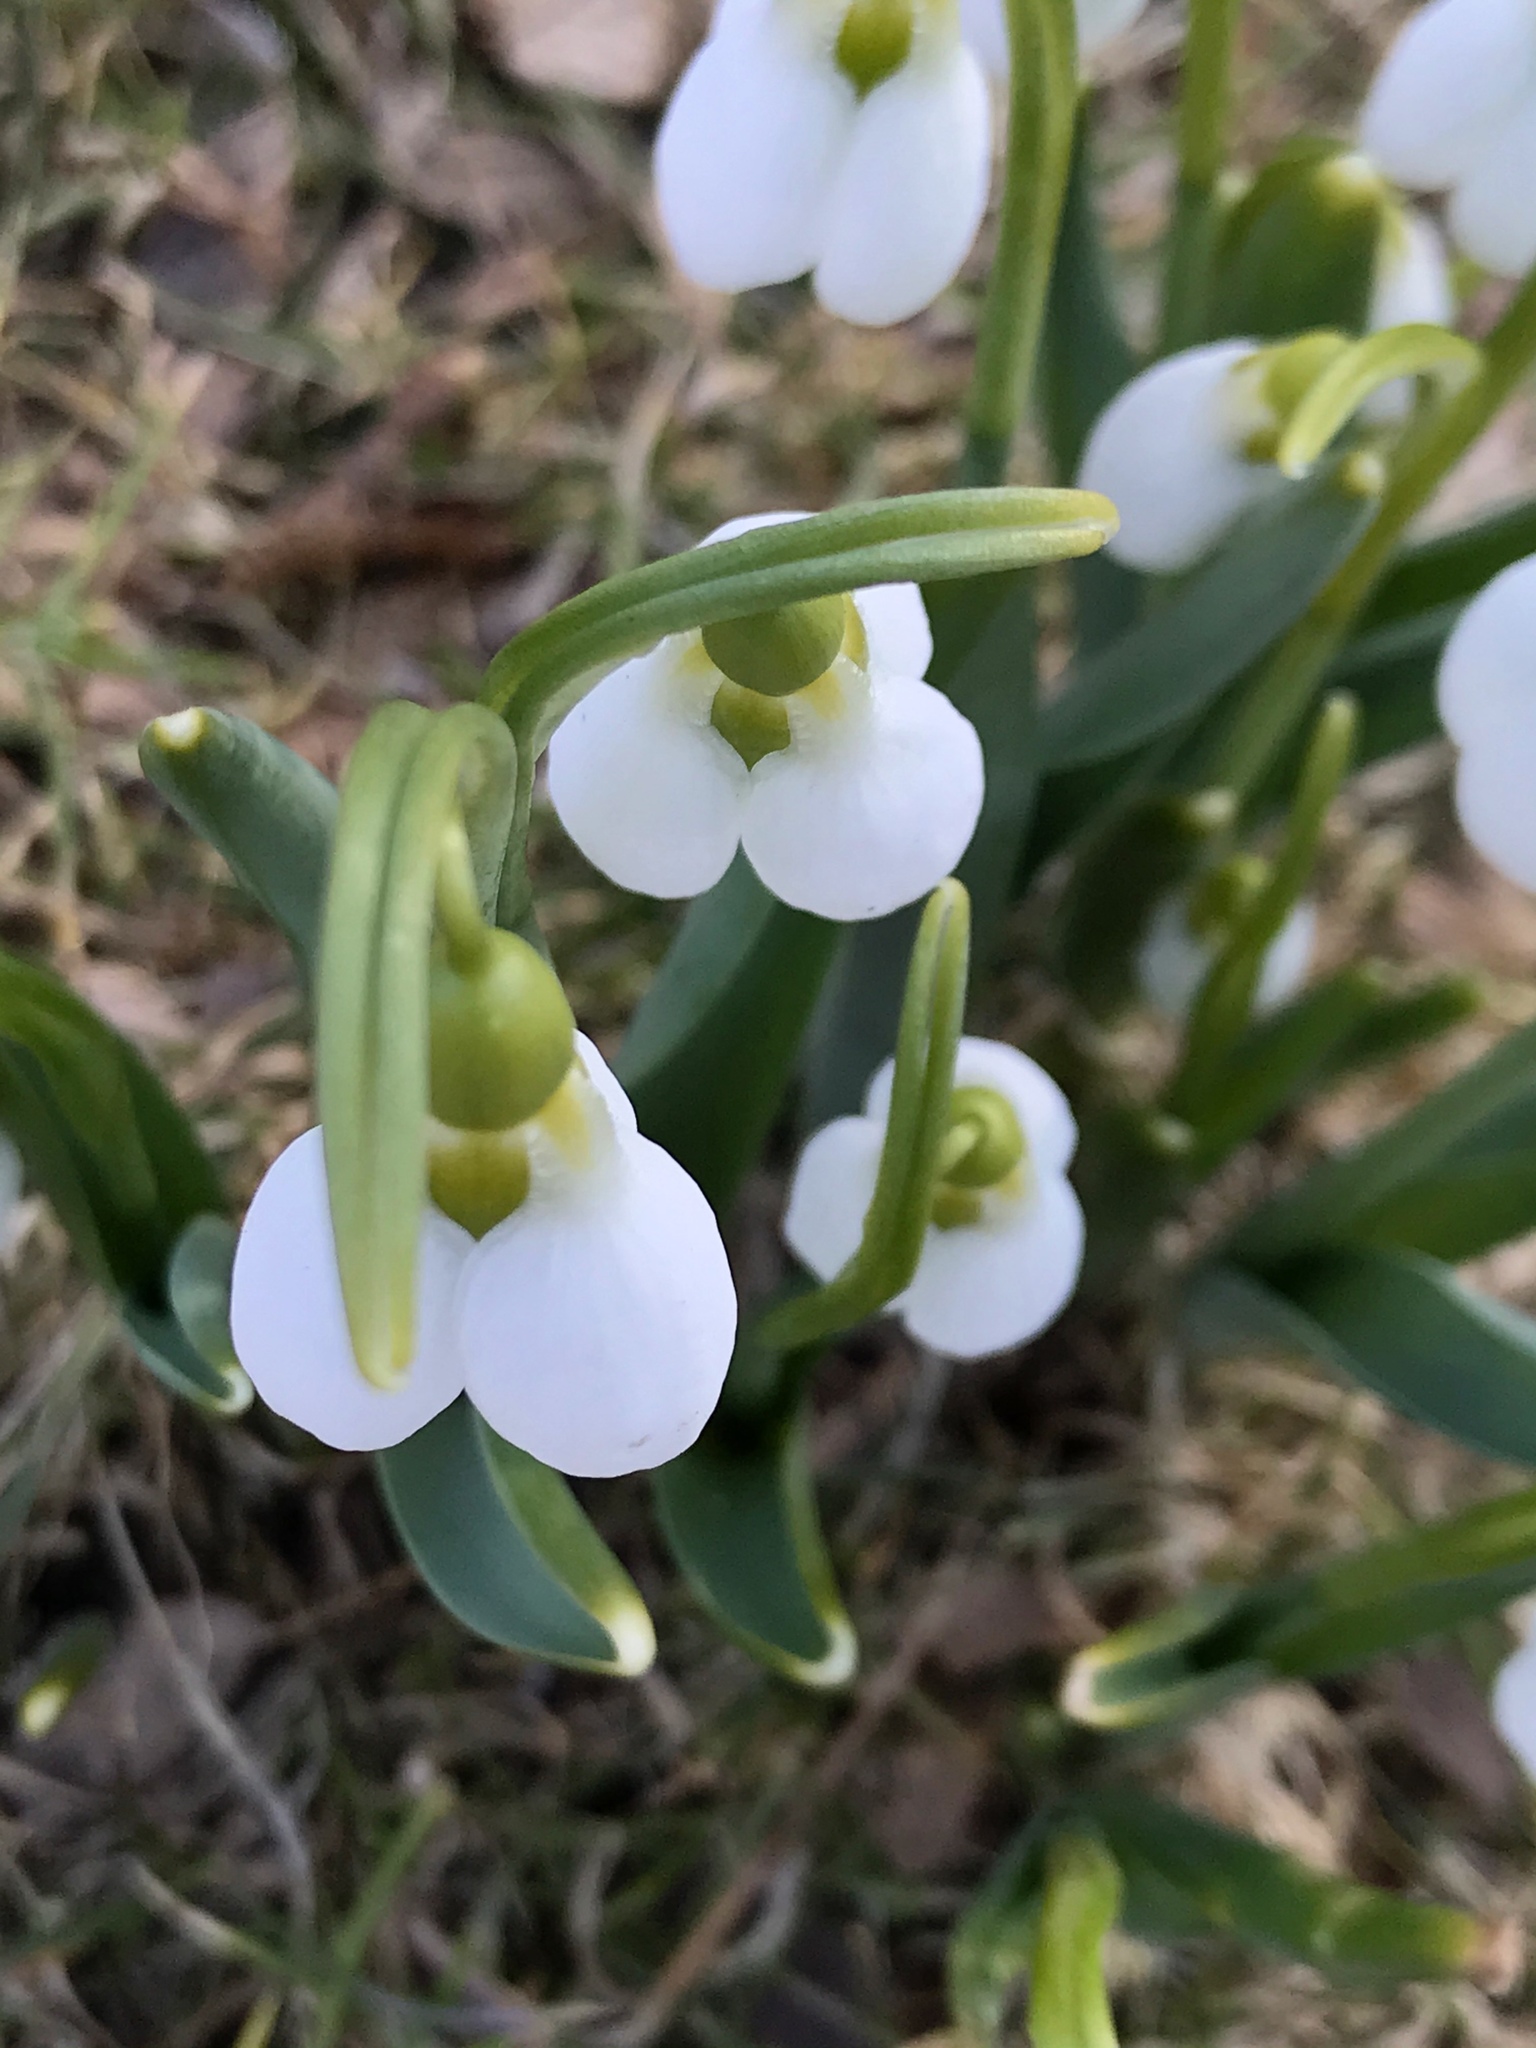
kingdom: Plantae
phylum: Tracheophyta
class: Liliopsida
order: Asparagales
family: Amaryllidaceae
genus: Galanthus
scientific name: Galanthus elwesii
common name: Greater snowdrop
